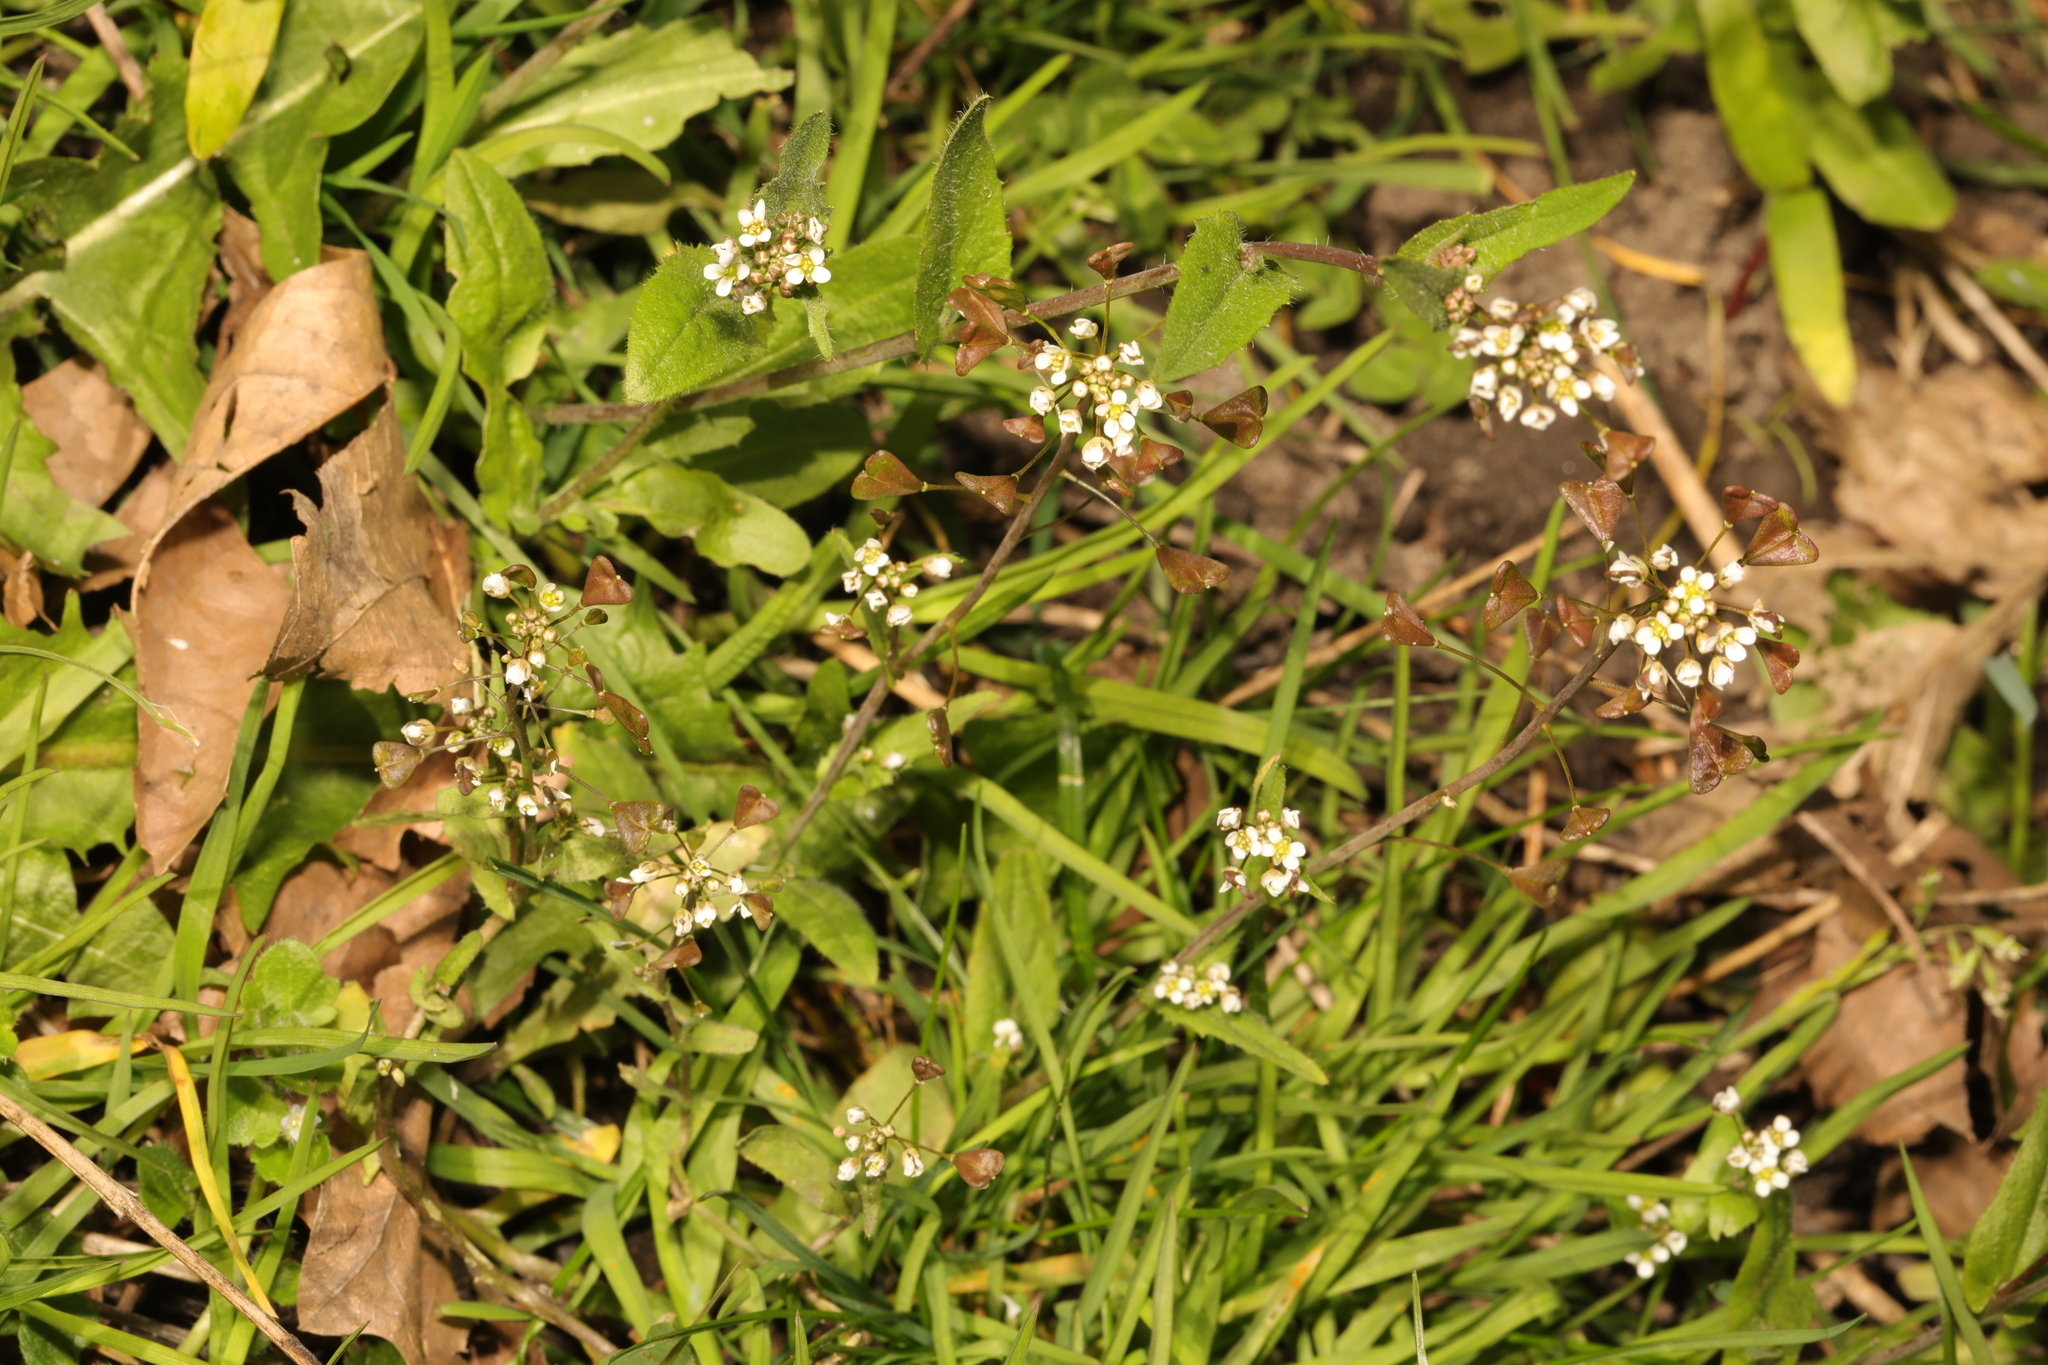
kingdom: Plantae
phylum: Tracheophyta
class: Magnoliopsida
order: Brassicales
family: Brassicaceae
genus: Capsella
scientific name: Capsella bursa-pastoris
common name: Shepherd's purse
